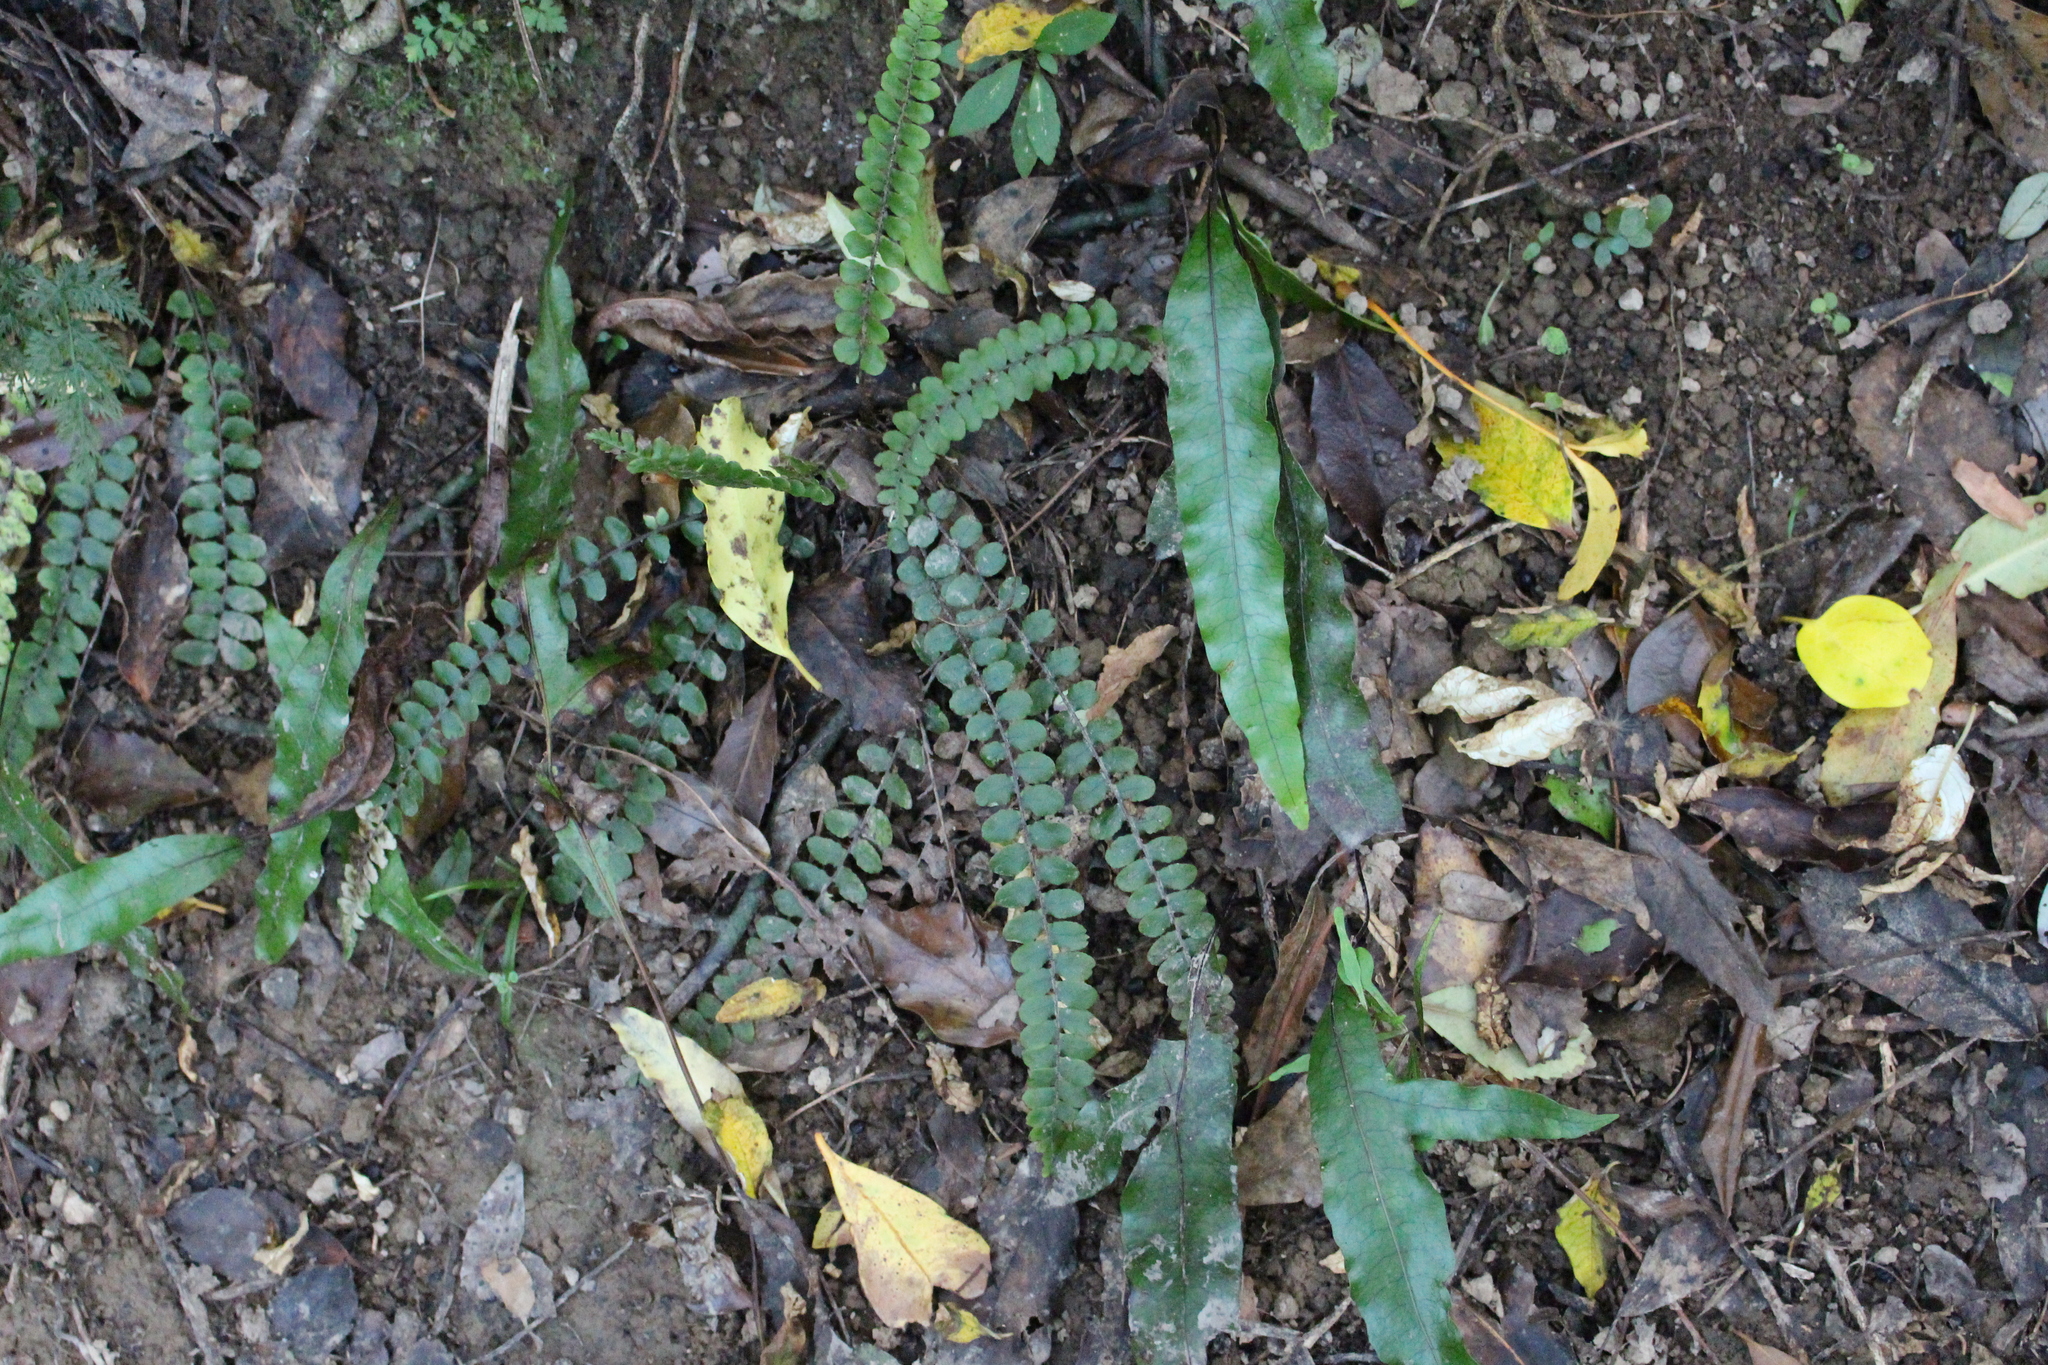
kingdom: Plantae
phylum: Tracheophyta
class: Polypodiopsida
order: Polypodiales
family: Blechnaceae
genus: Cranfillia
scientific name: Cranfillia fluviatilis
